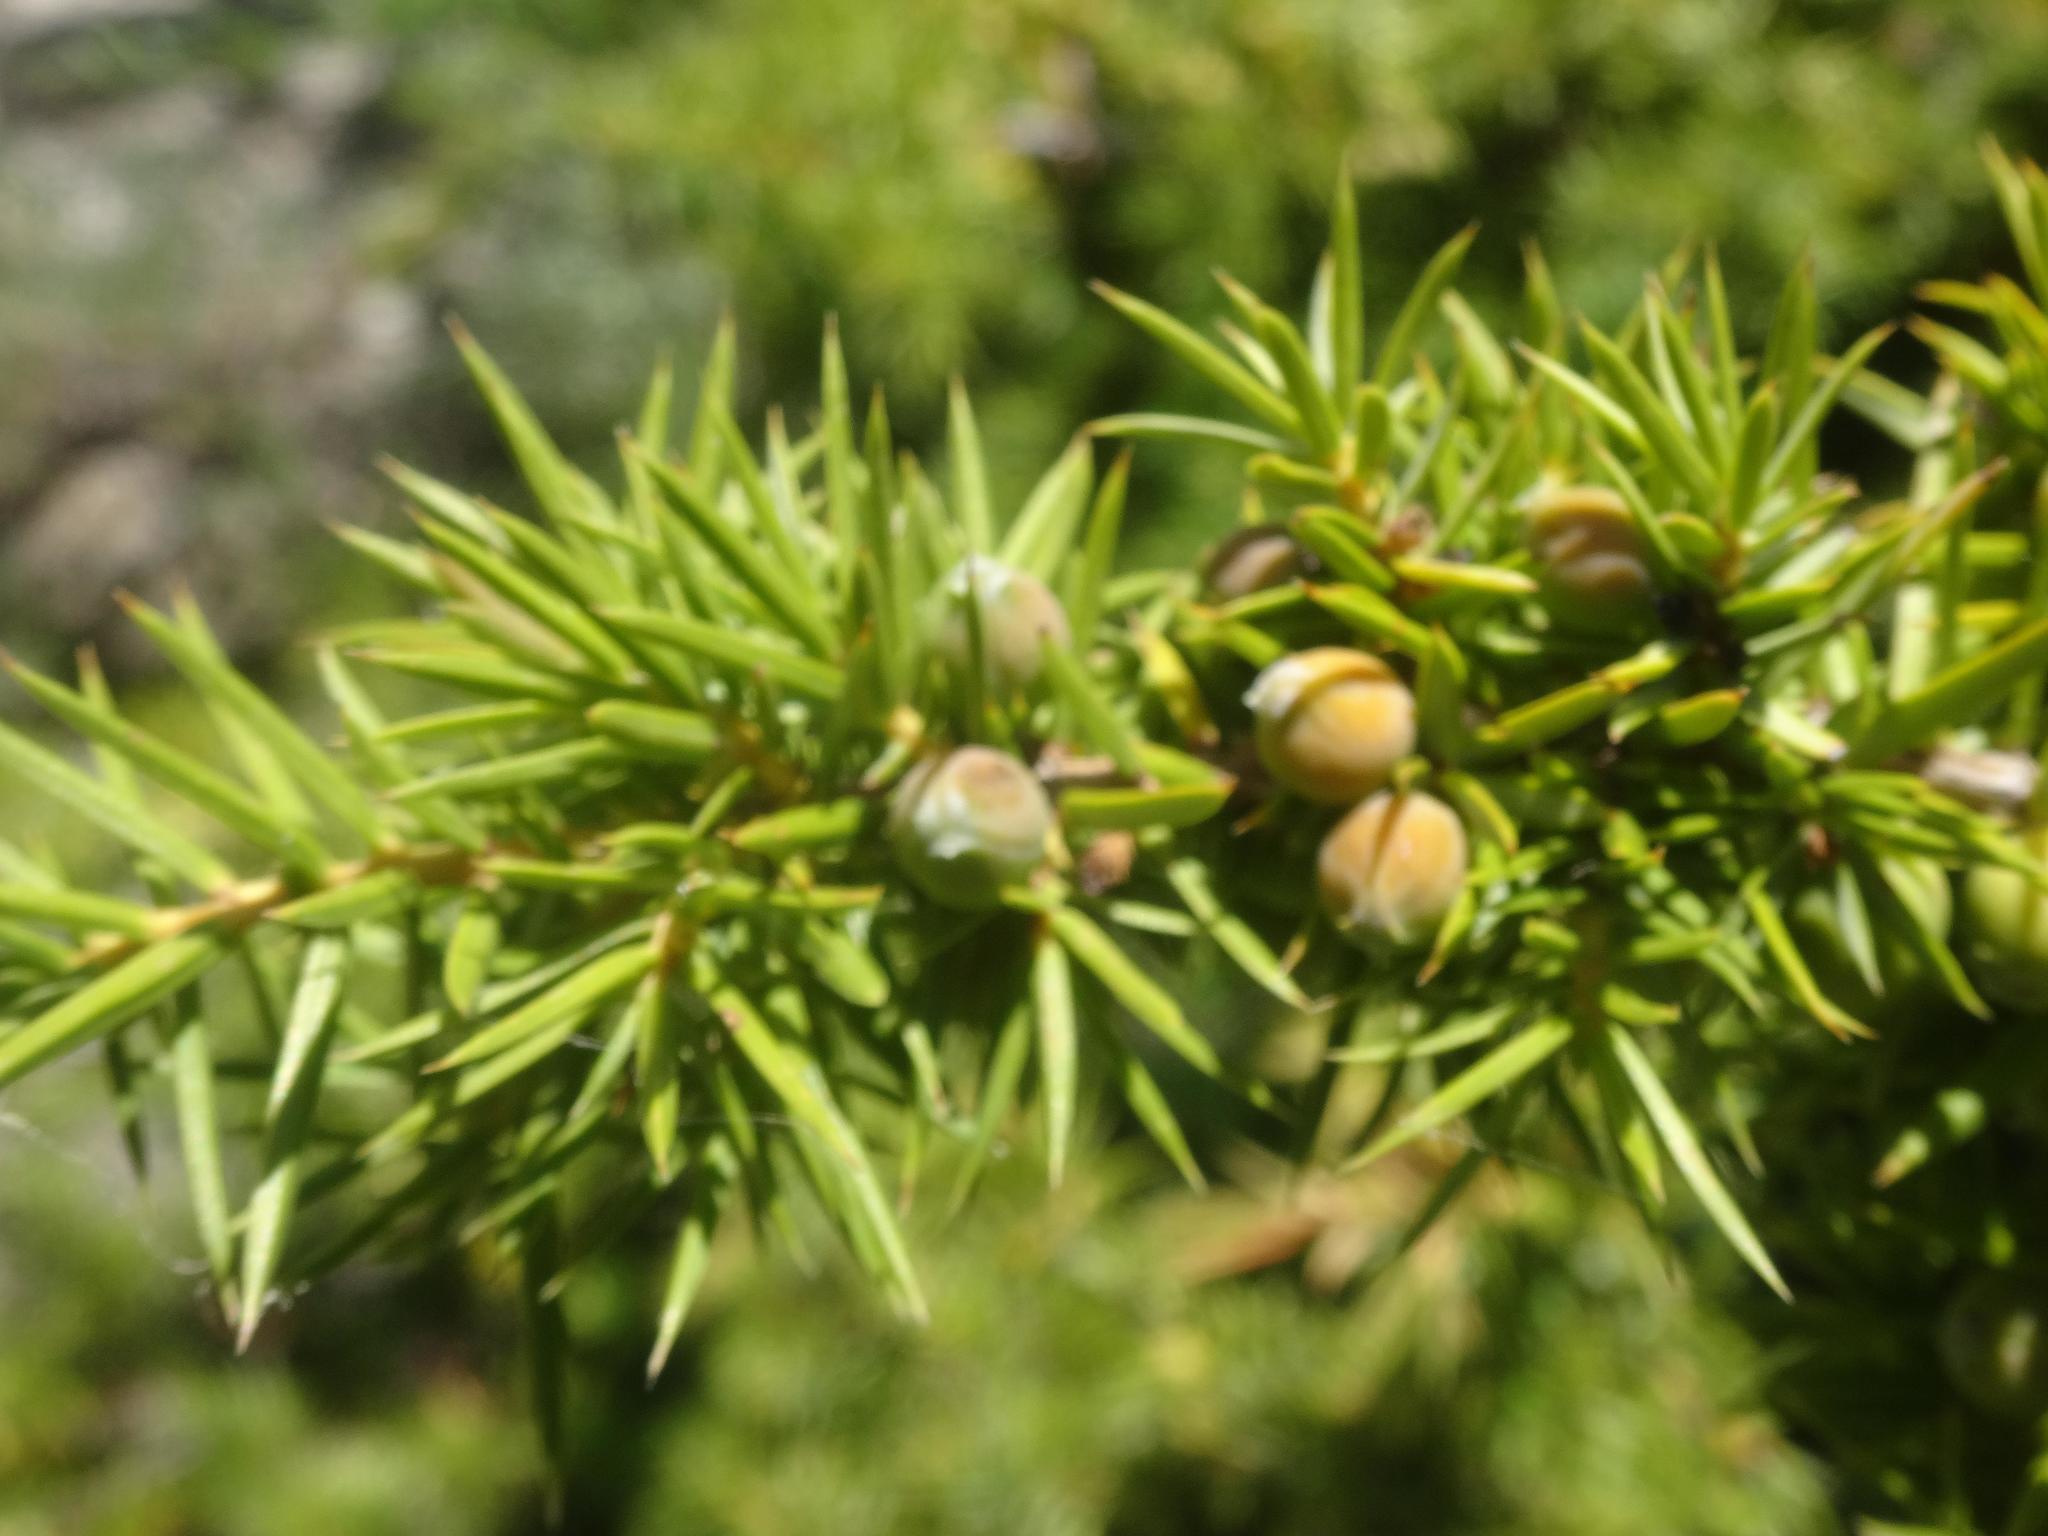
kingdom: Plantae
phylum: Tracheophyta
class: Pinopsida
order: Pinales
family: Cupressaceae
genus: Juniperus
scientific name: Juniperus communis
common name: Common juniper
